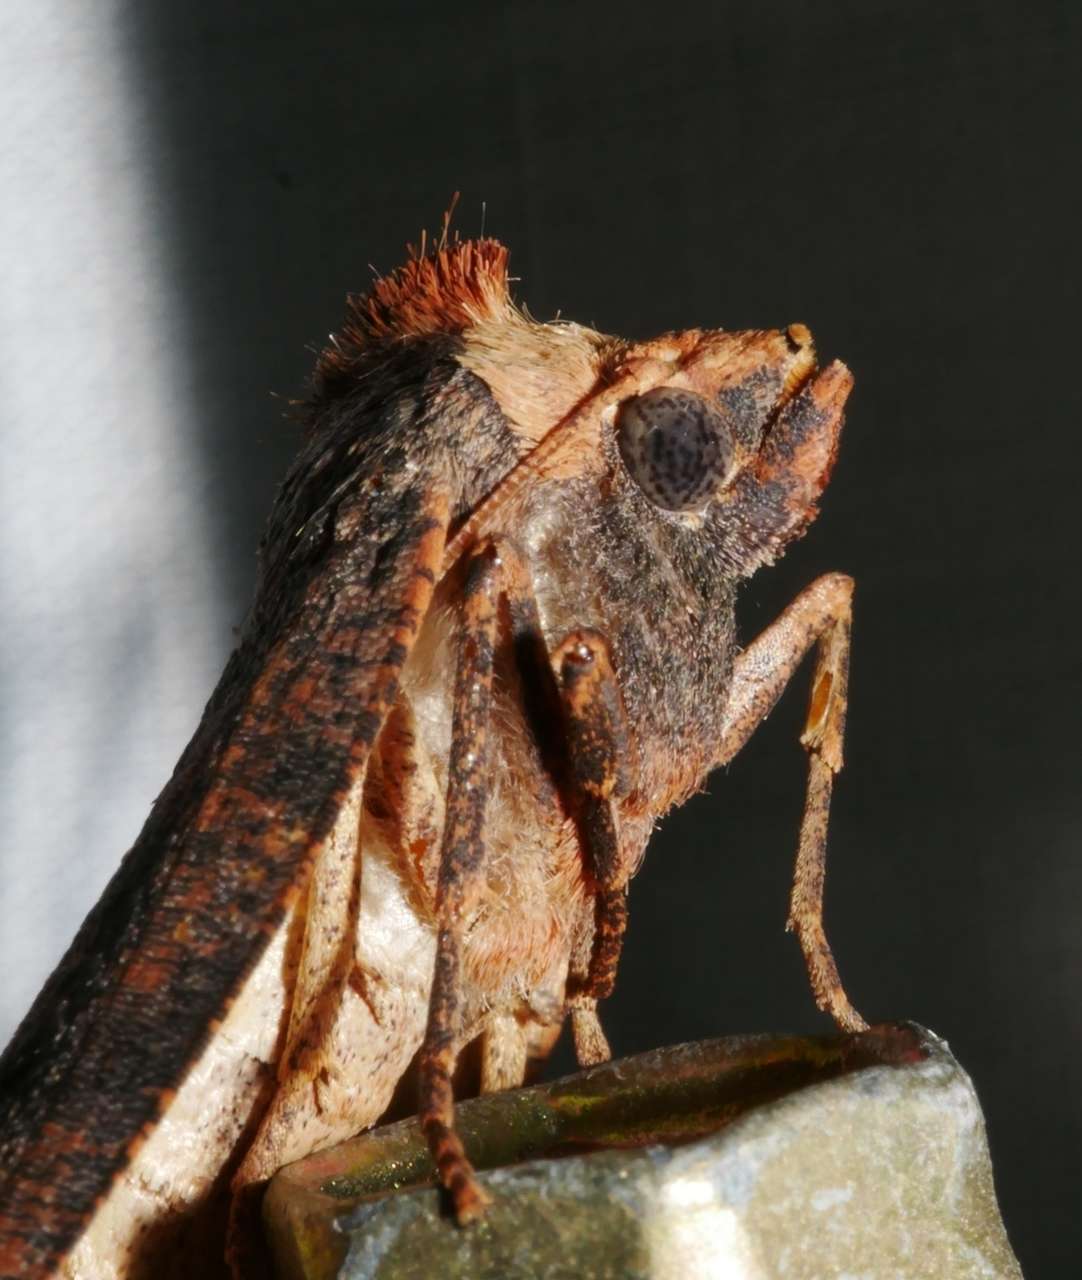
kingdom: Animalia
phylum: Arthropoda
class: Insecta
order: Lepidoptera
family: Geometridae
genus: Fisera
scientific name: Fisera eribola
